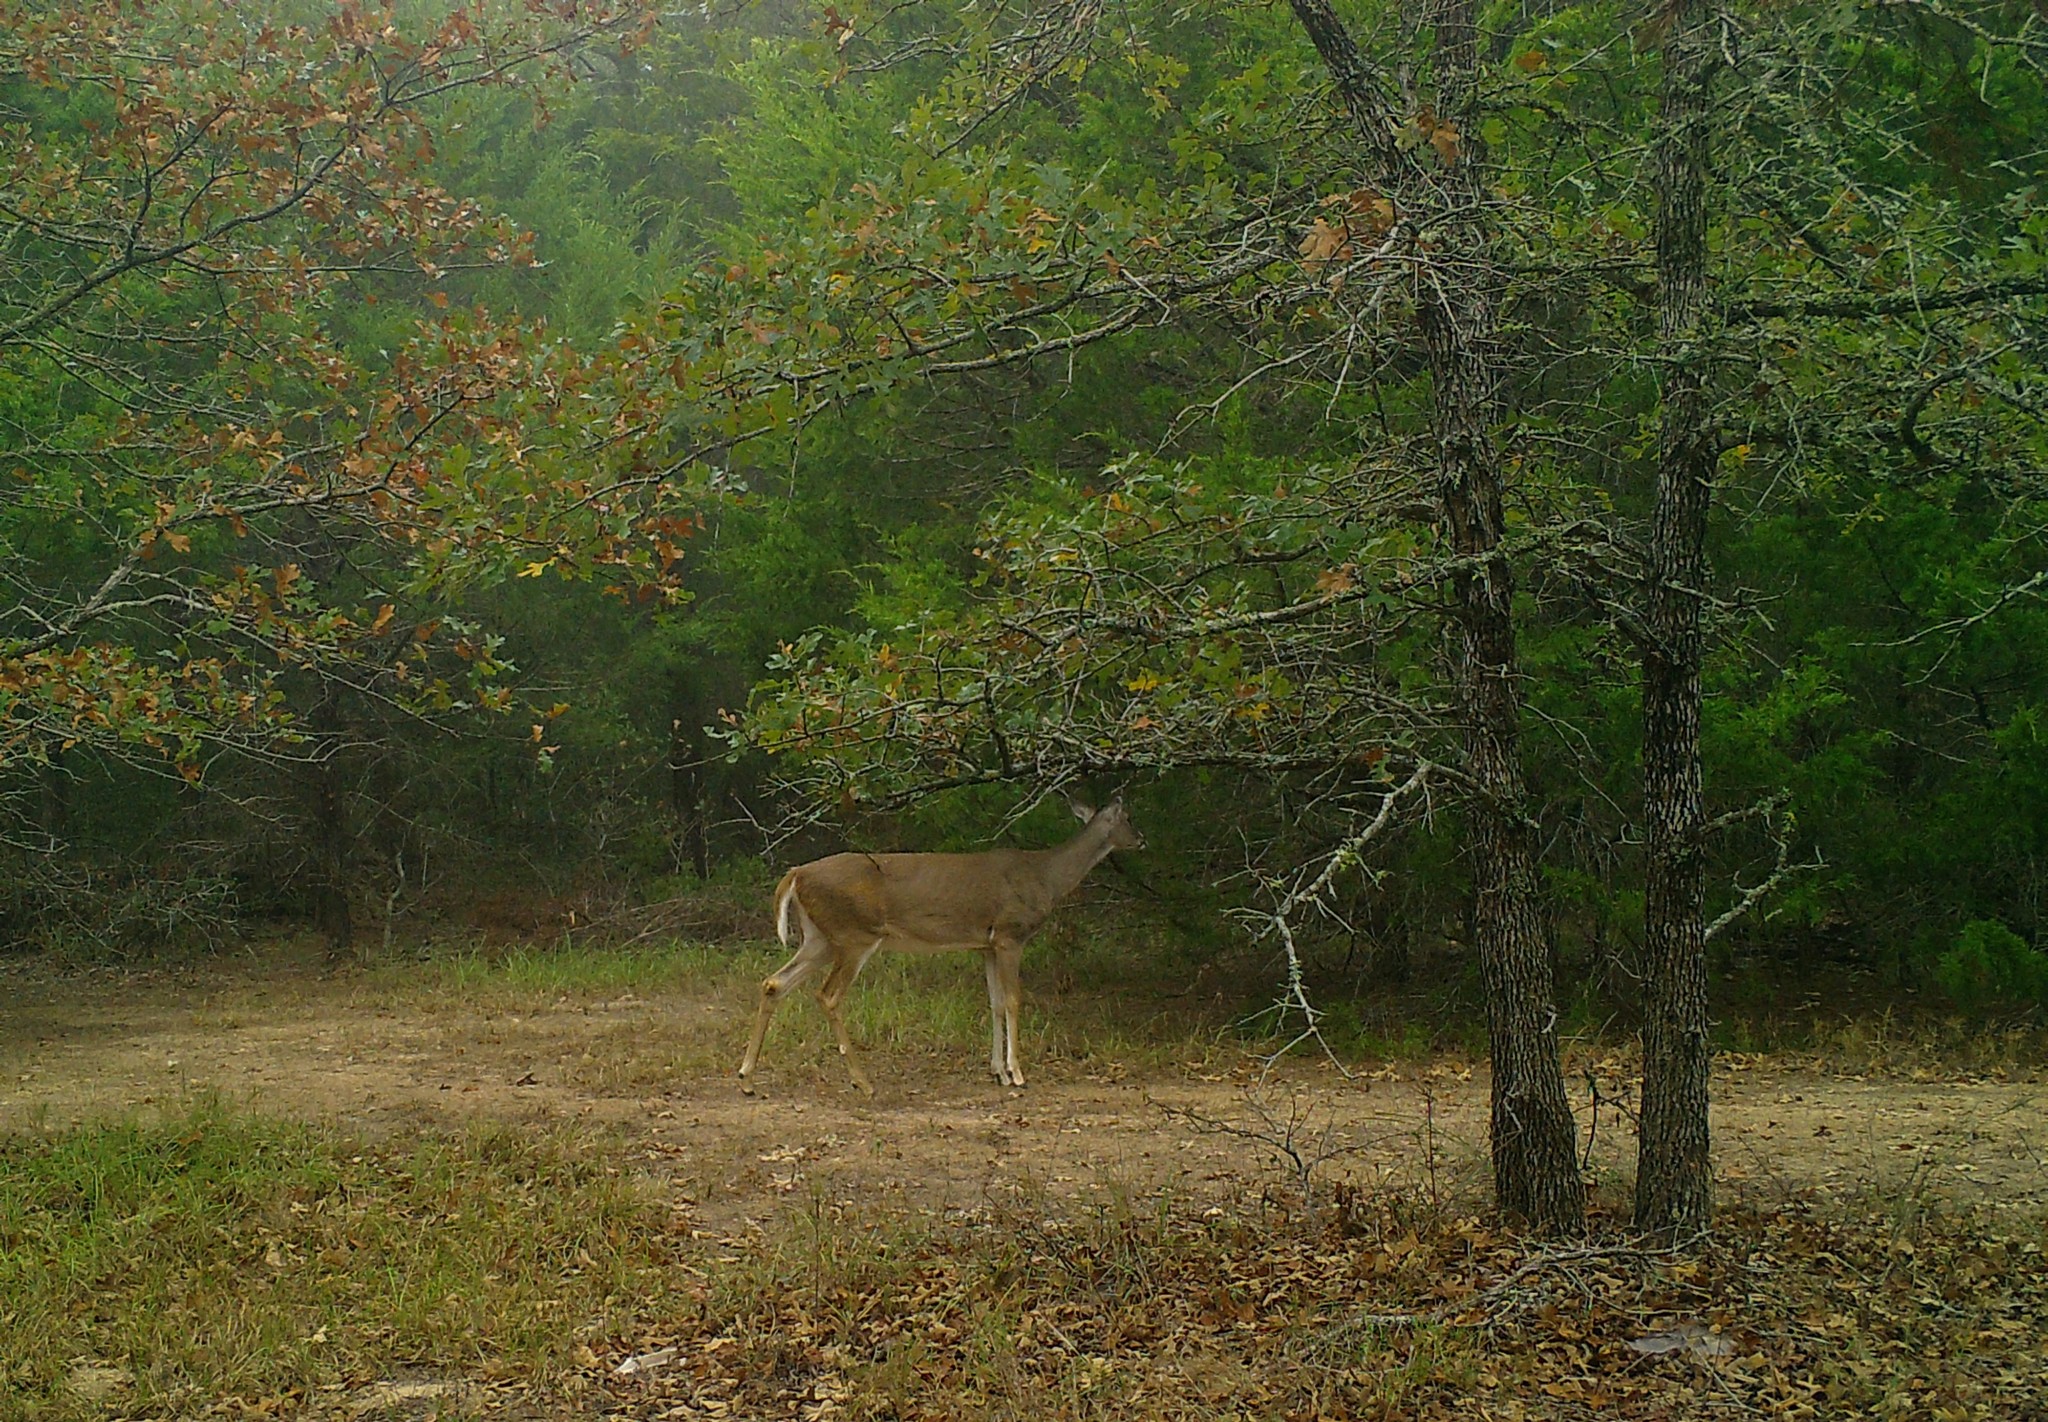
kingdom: Animalia
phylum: Chordata
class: Mammalia
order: Artiodactyla
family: Cervidae
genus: Odocoileus
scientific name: Odocoileus virginianus
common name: White-tailed deer
